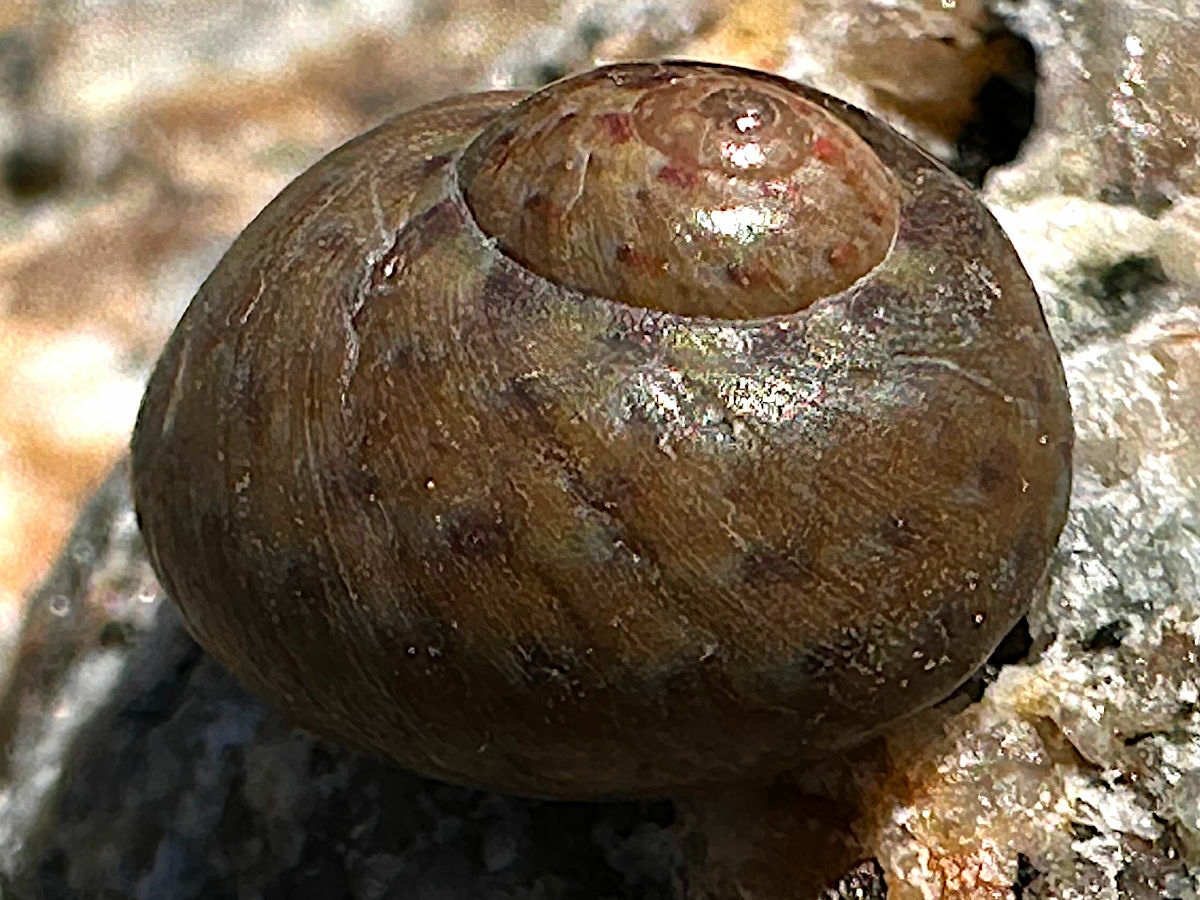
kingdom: Animalia
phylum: Mollusca
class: Gastropoda
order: Trochida
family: Trochidae
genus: Phorcus
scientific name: Phorcus richardi
